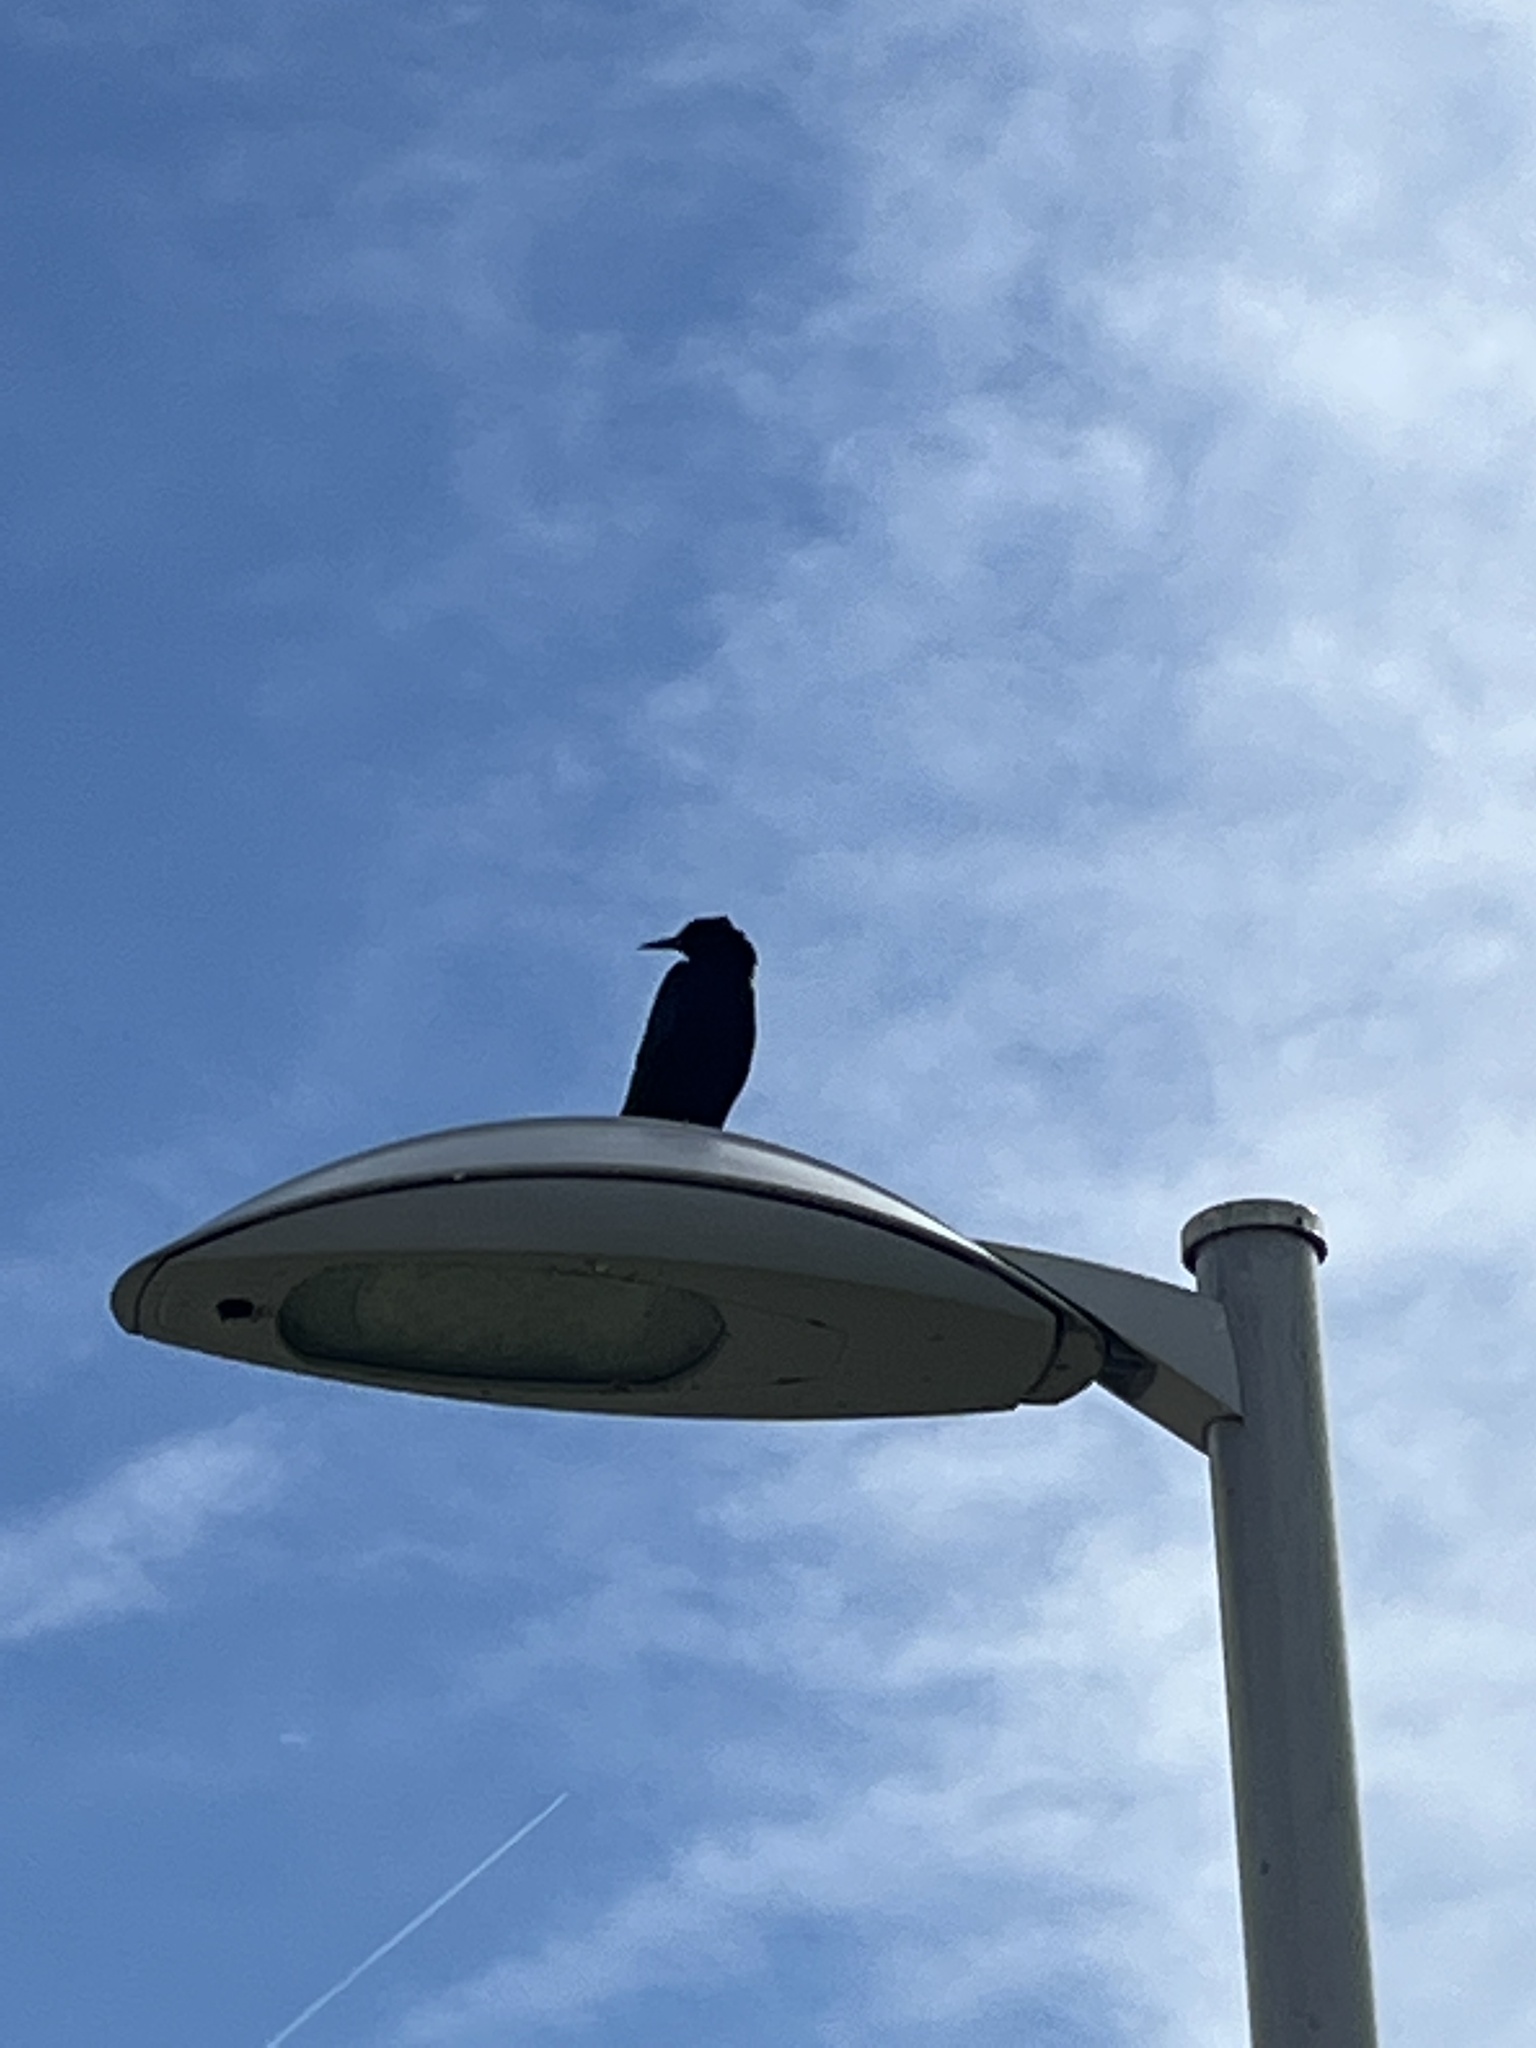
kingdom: Animalia
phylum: Chordata
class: Aves
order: Passeriformes
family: Icteridae
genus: Quiscalus
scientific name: Quiscalus major
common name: Boat-tailed grackle
